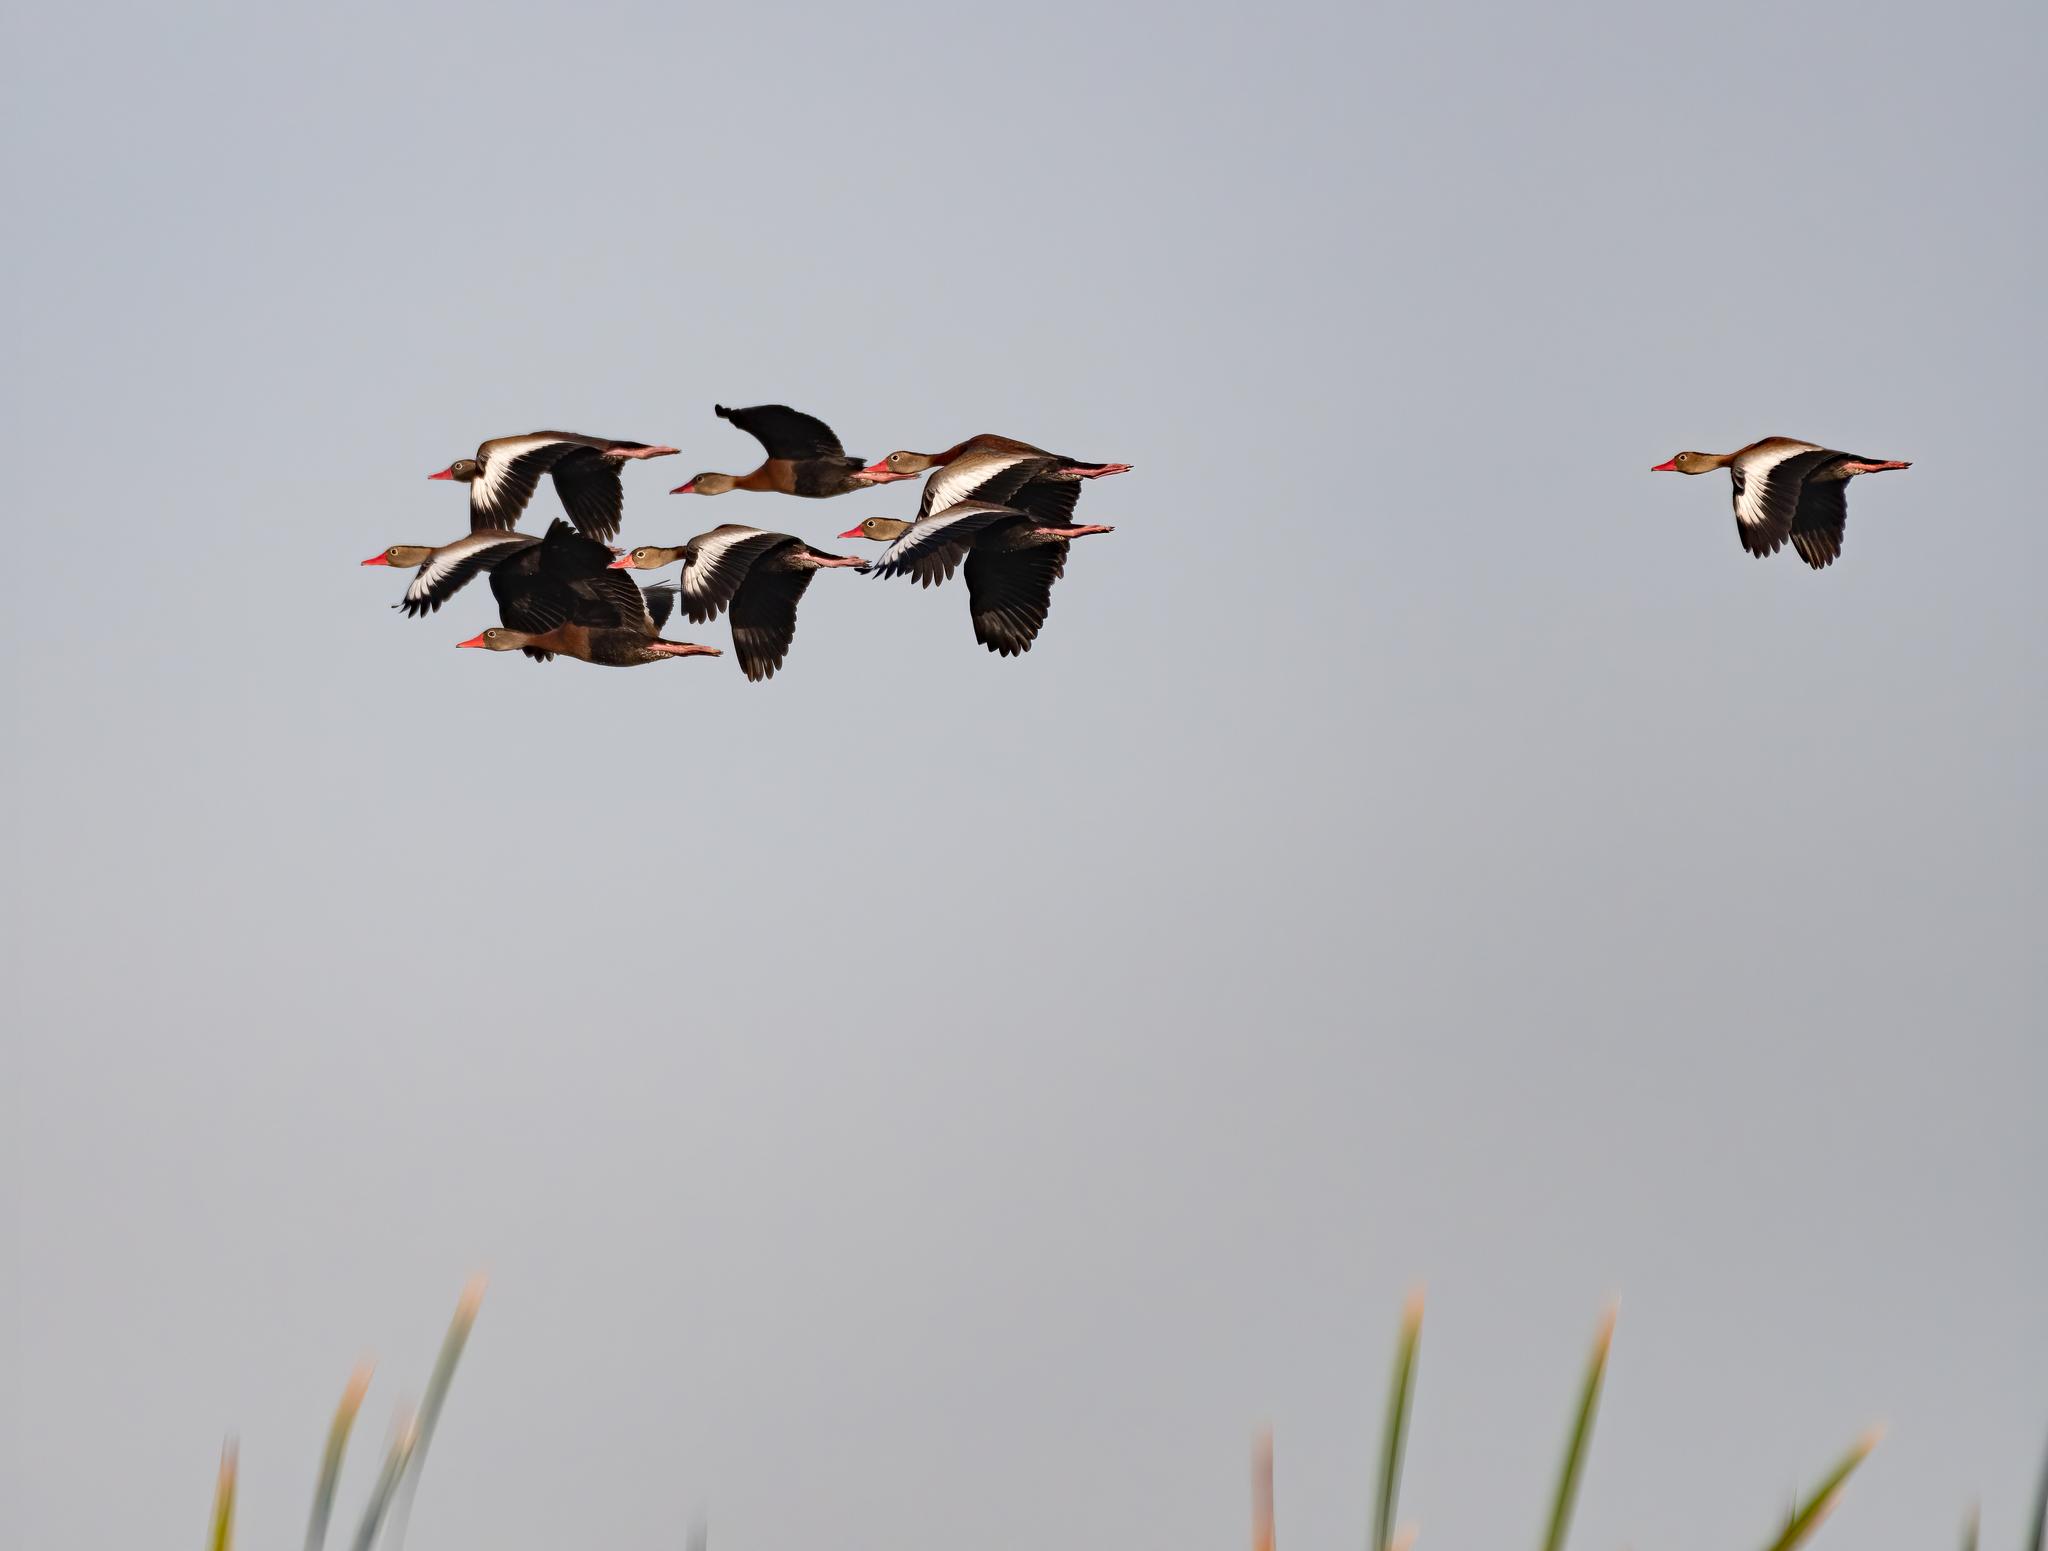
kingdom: Animalia
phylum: Chordata
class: Aves
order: Anseriformes
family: Anatidae
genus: Dendrocygna
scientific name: Dendrocygna autumnalis
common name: Black-bellied whistling duck
